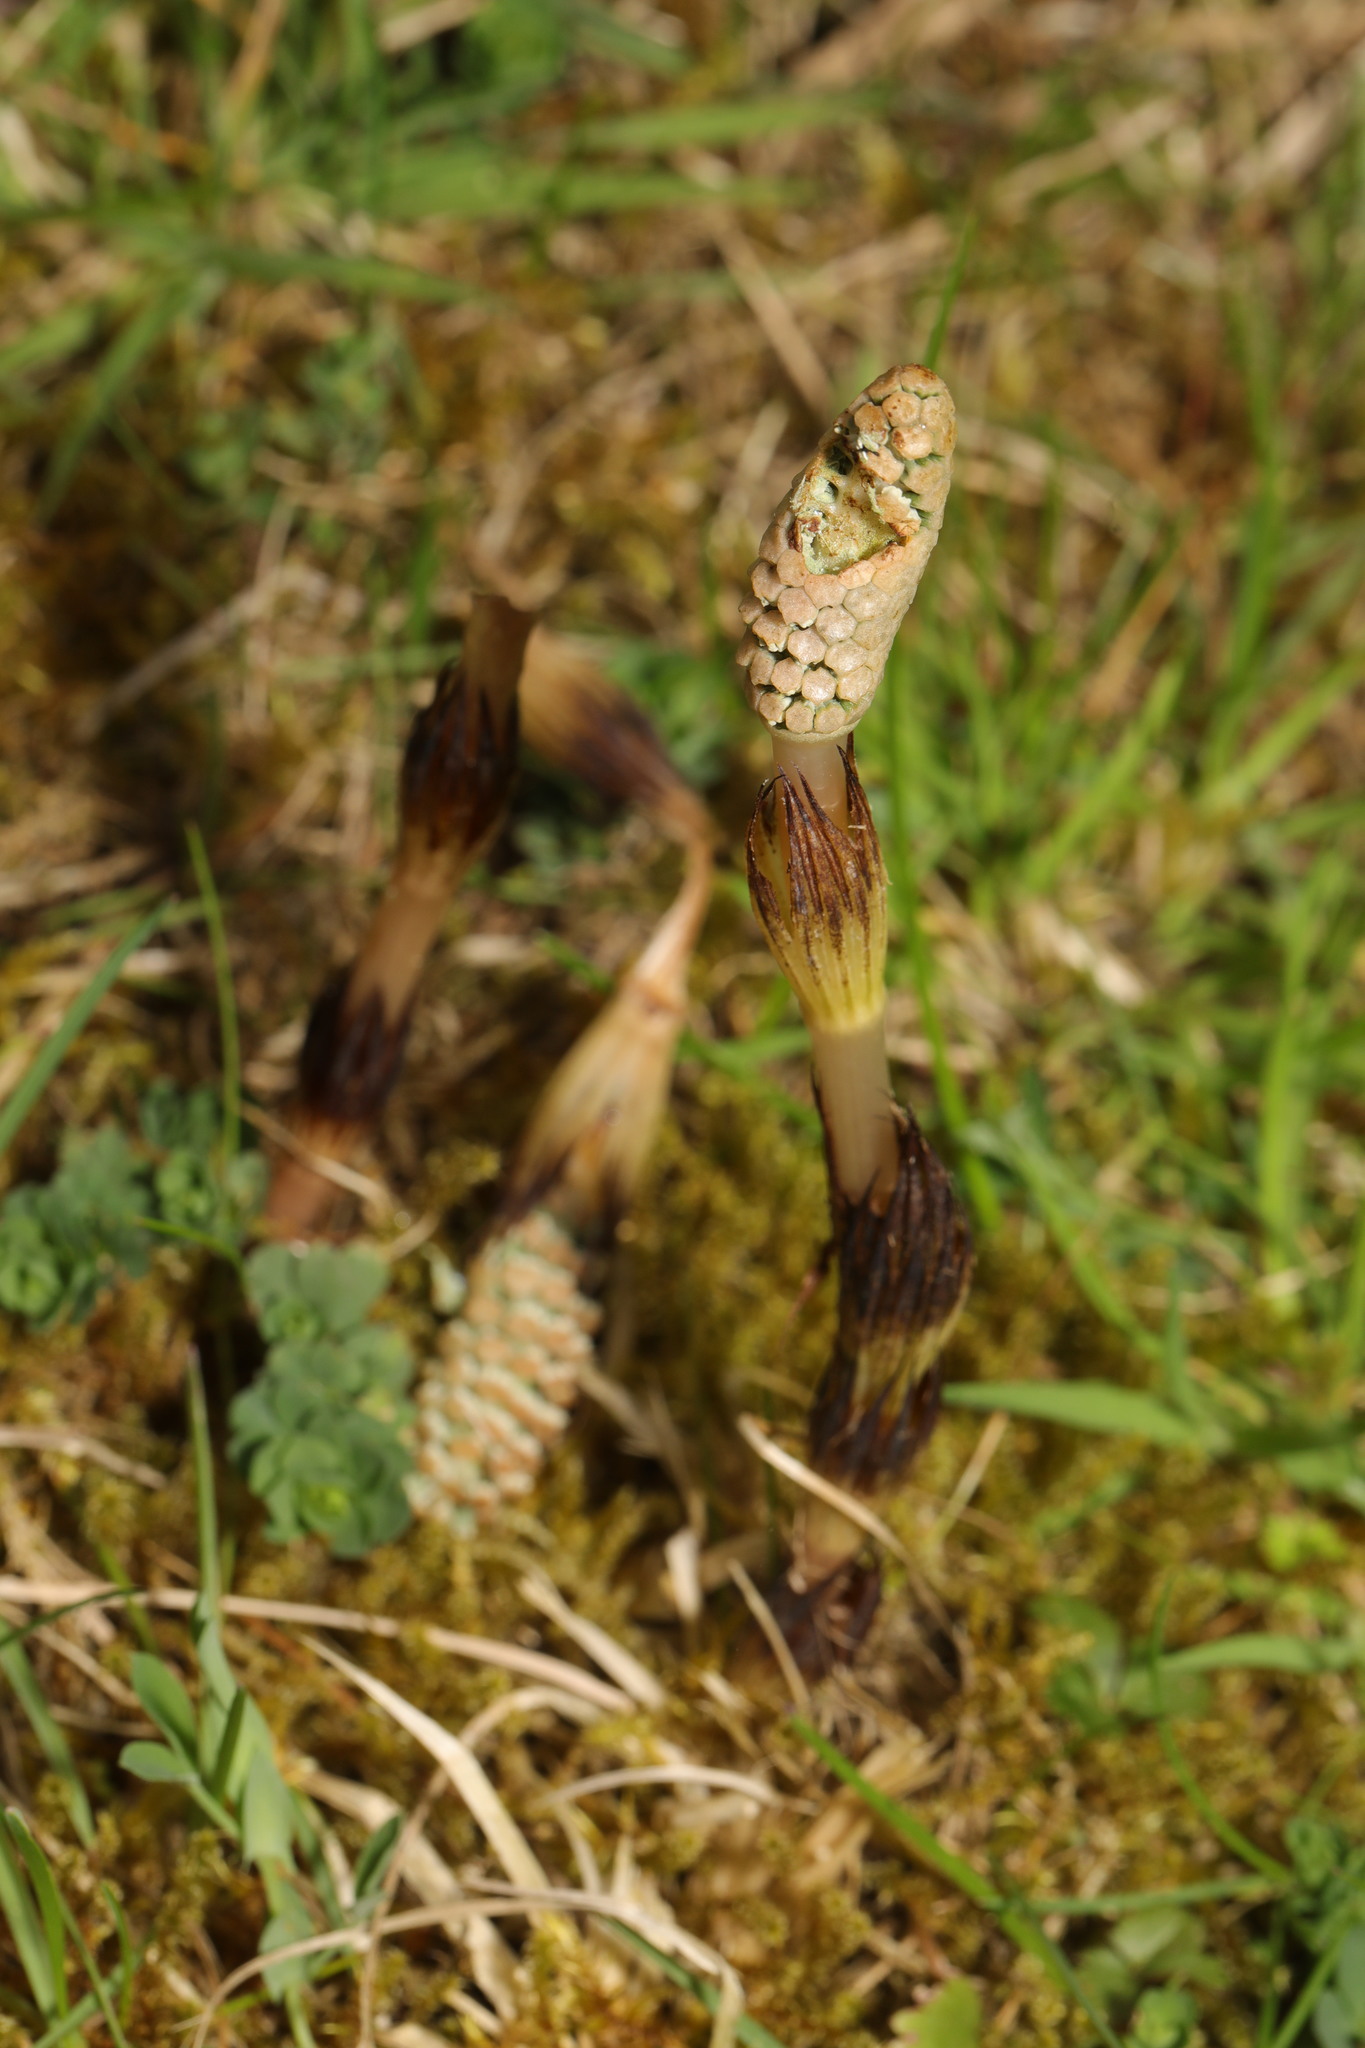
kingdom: Plantae
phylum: Tracheophyta
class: Polypodiopsida
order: Equisetales
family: Equisetaceae
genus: Equisetum
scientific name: Equisetum arvense
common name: Field horsetail
